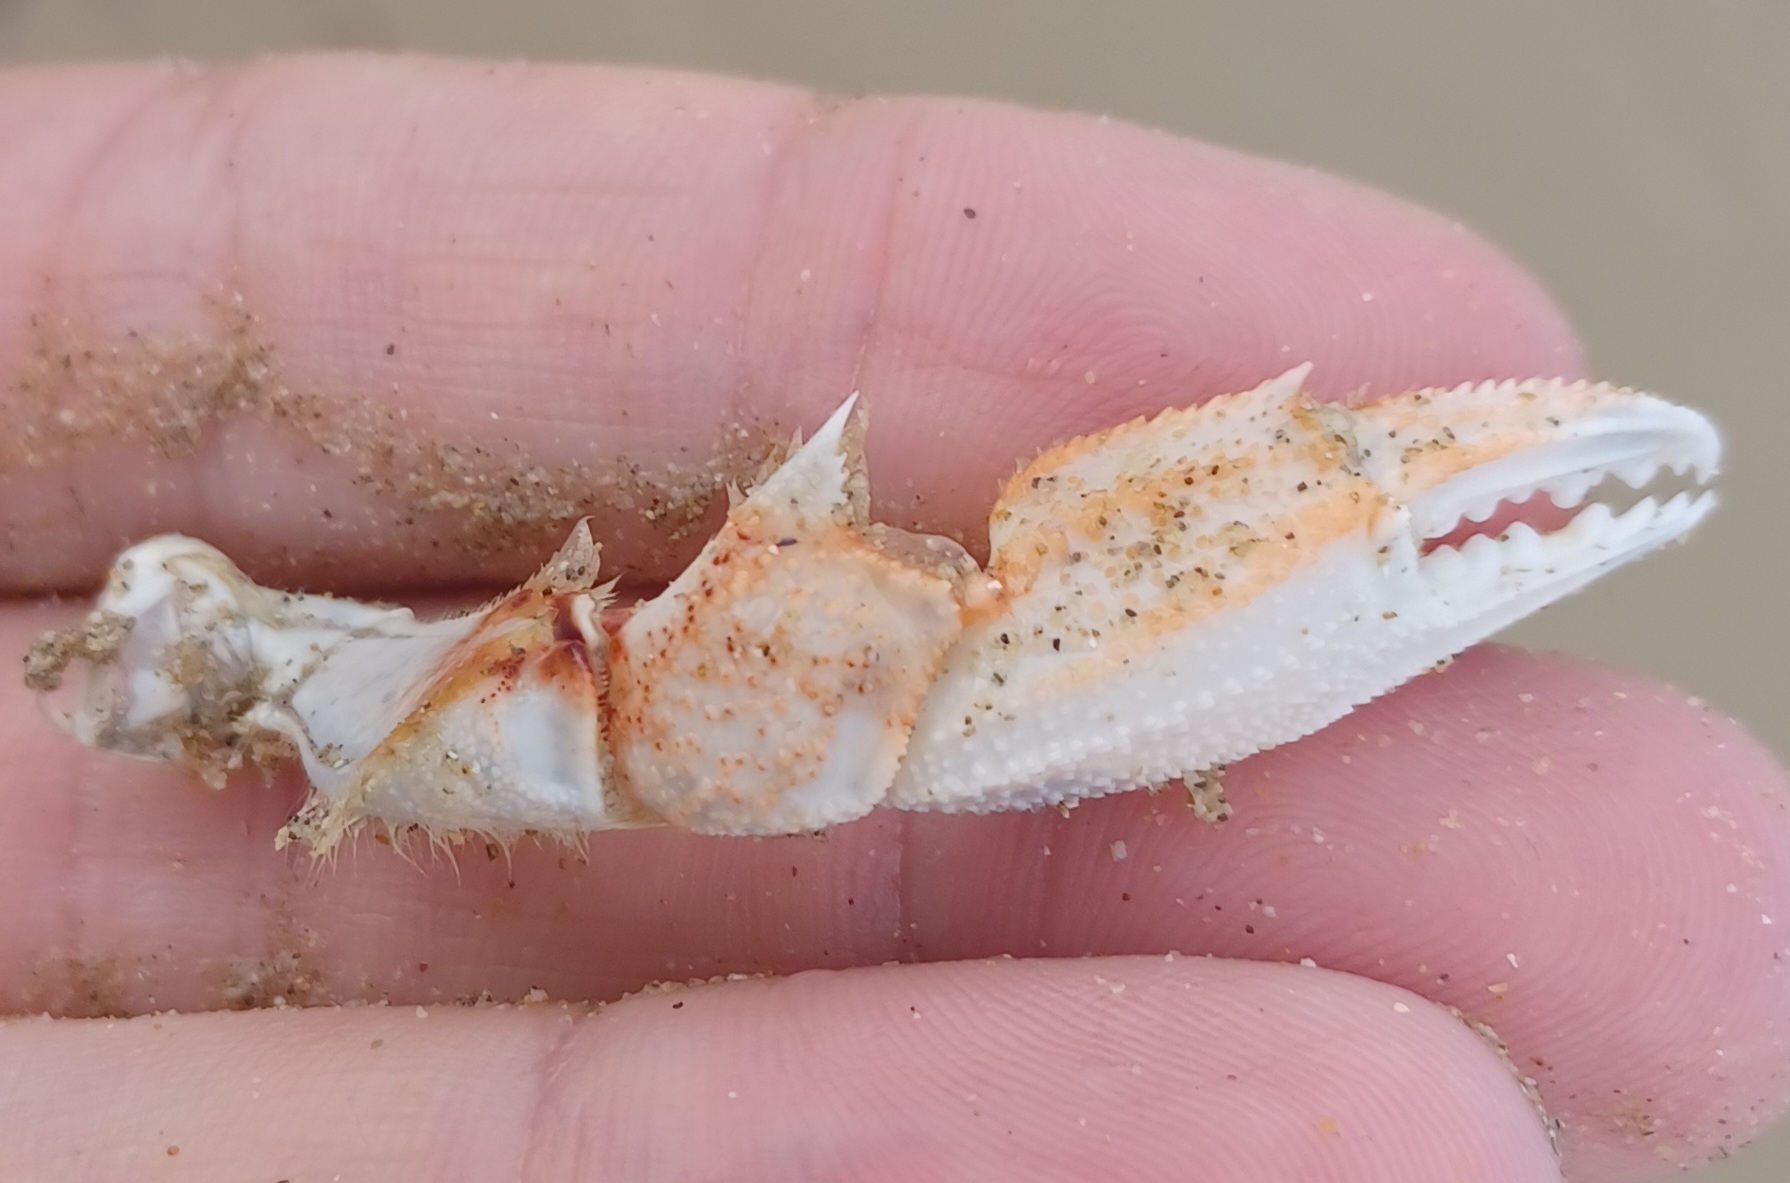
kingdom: Animalia
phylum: Arthropoda
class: Malacostraca
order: Decapoda
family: Ovalipidae
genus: Ovalipes
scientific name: Ovalipes australiensis
